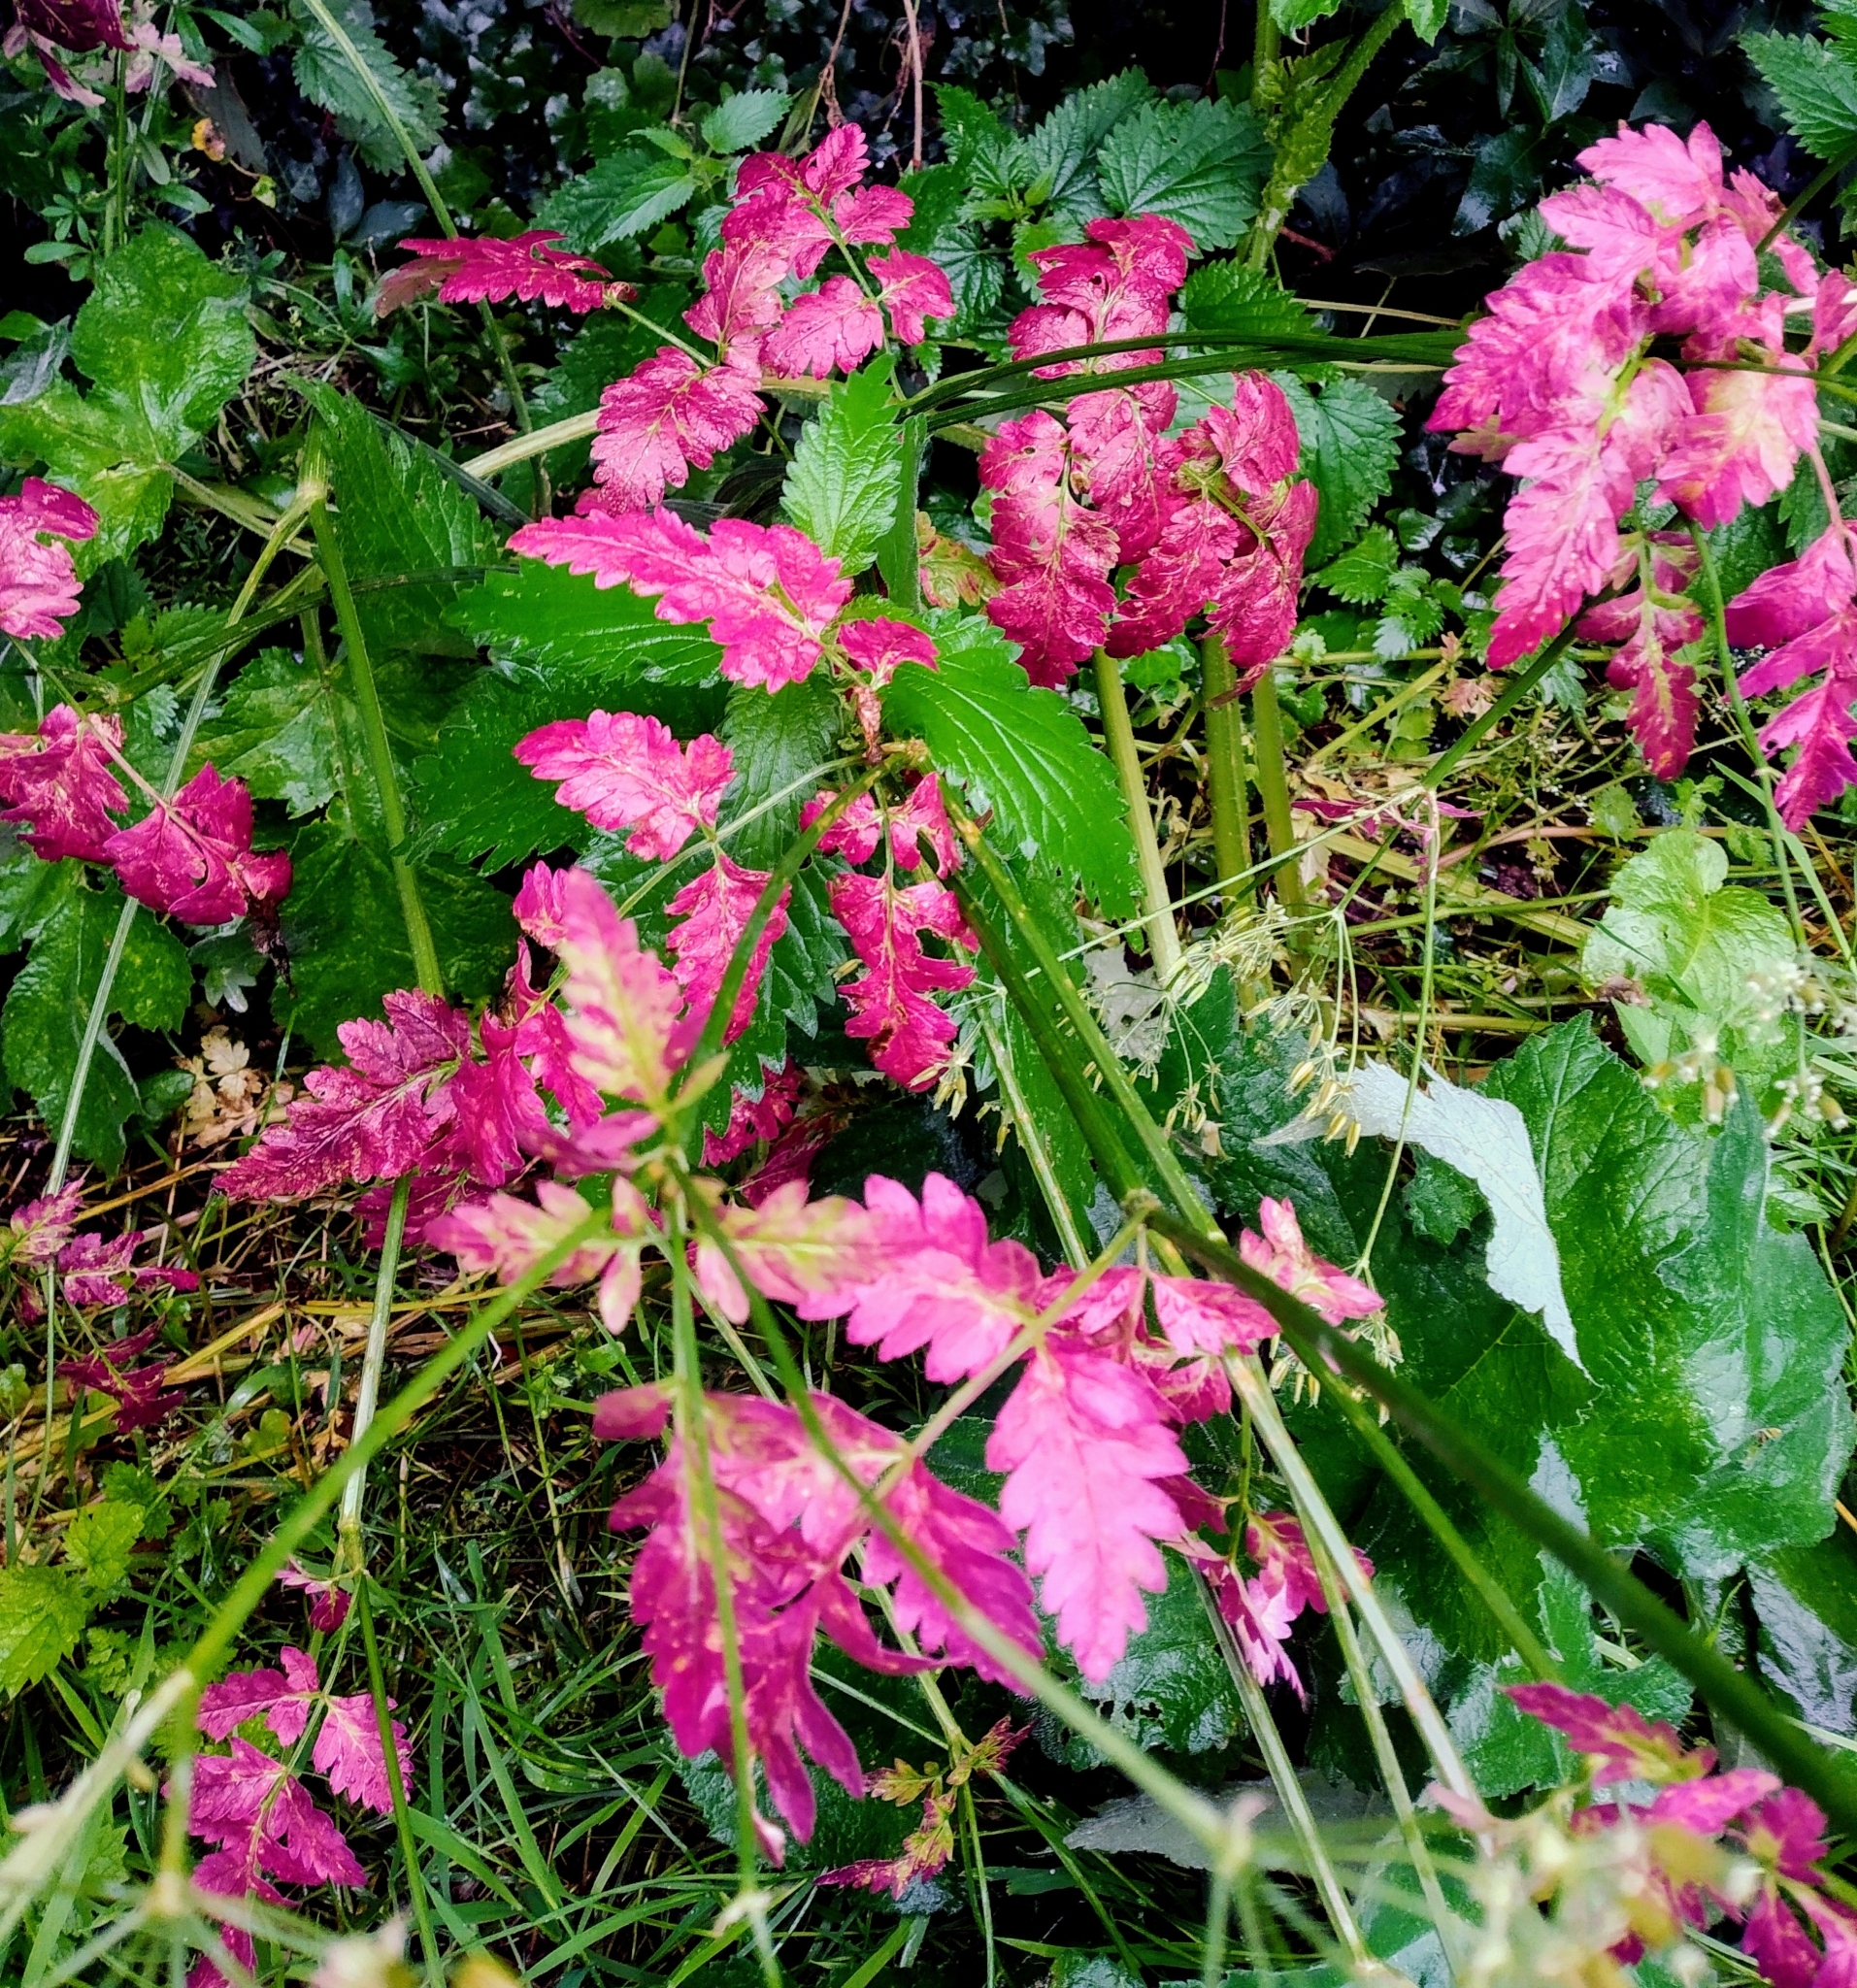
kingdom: Plantae
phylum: Tracheophyta
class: Magnoliopsida
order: Apiales
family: Apiaceae
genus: Chaerophyllum
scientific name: Chaerophyllum temulum
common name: Rough chervil
